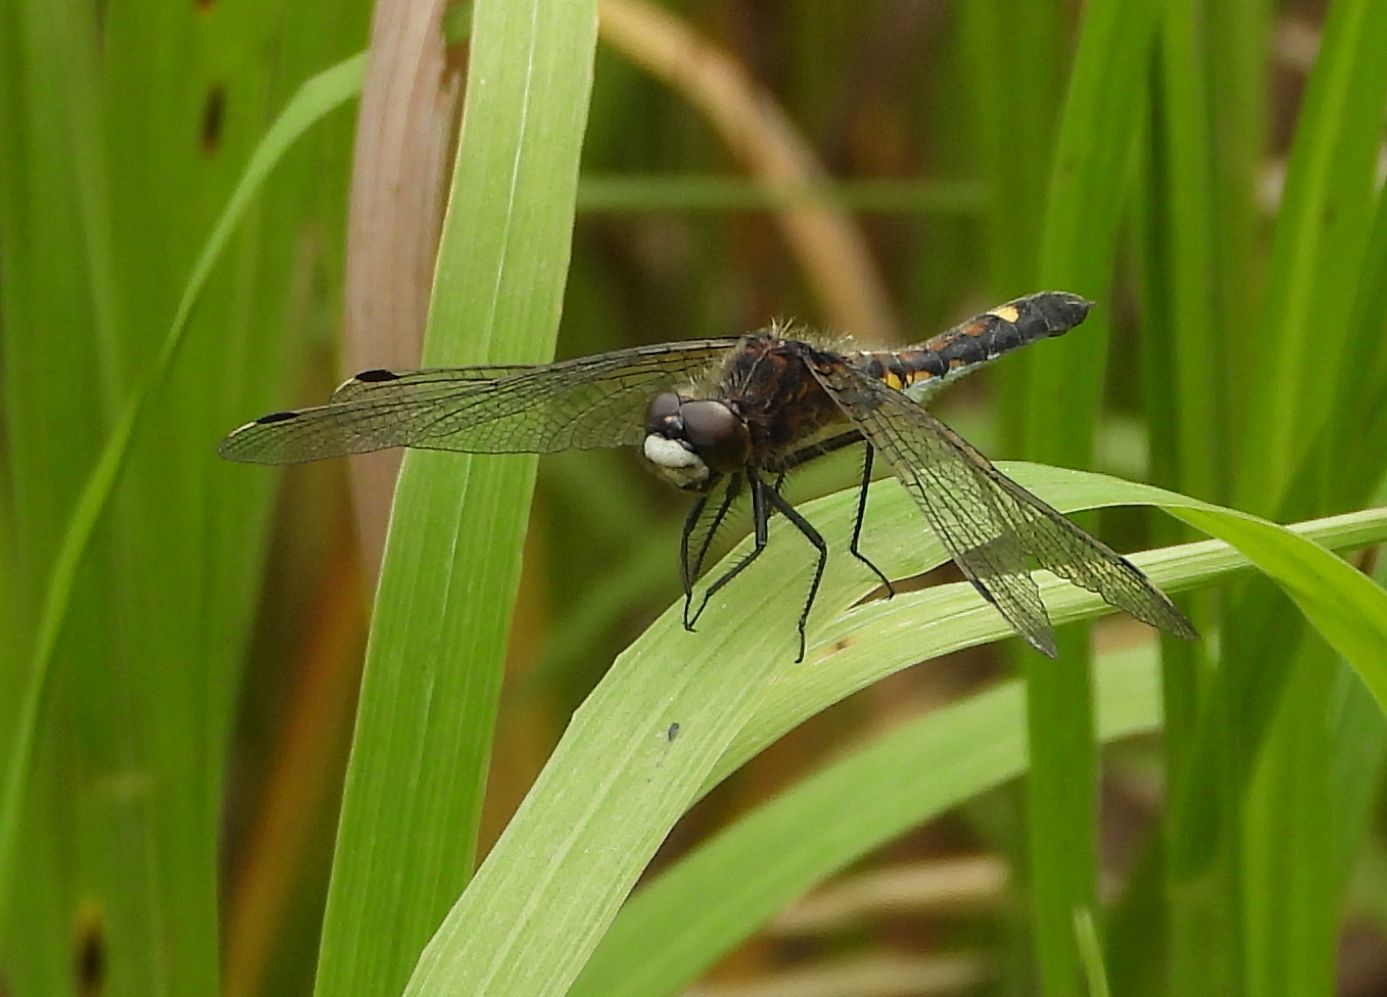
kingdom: Animalia
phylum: Arthropoda
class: Insecta
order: Odonata
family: Libellulidae
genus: Leucorrhinia
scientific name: Leucorrhinia intacta
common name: Dot-tailed whiteface
